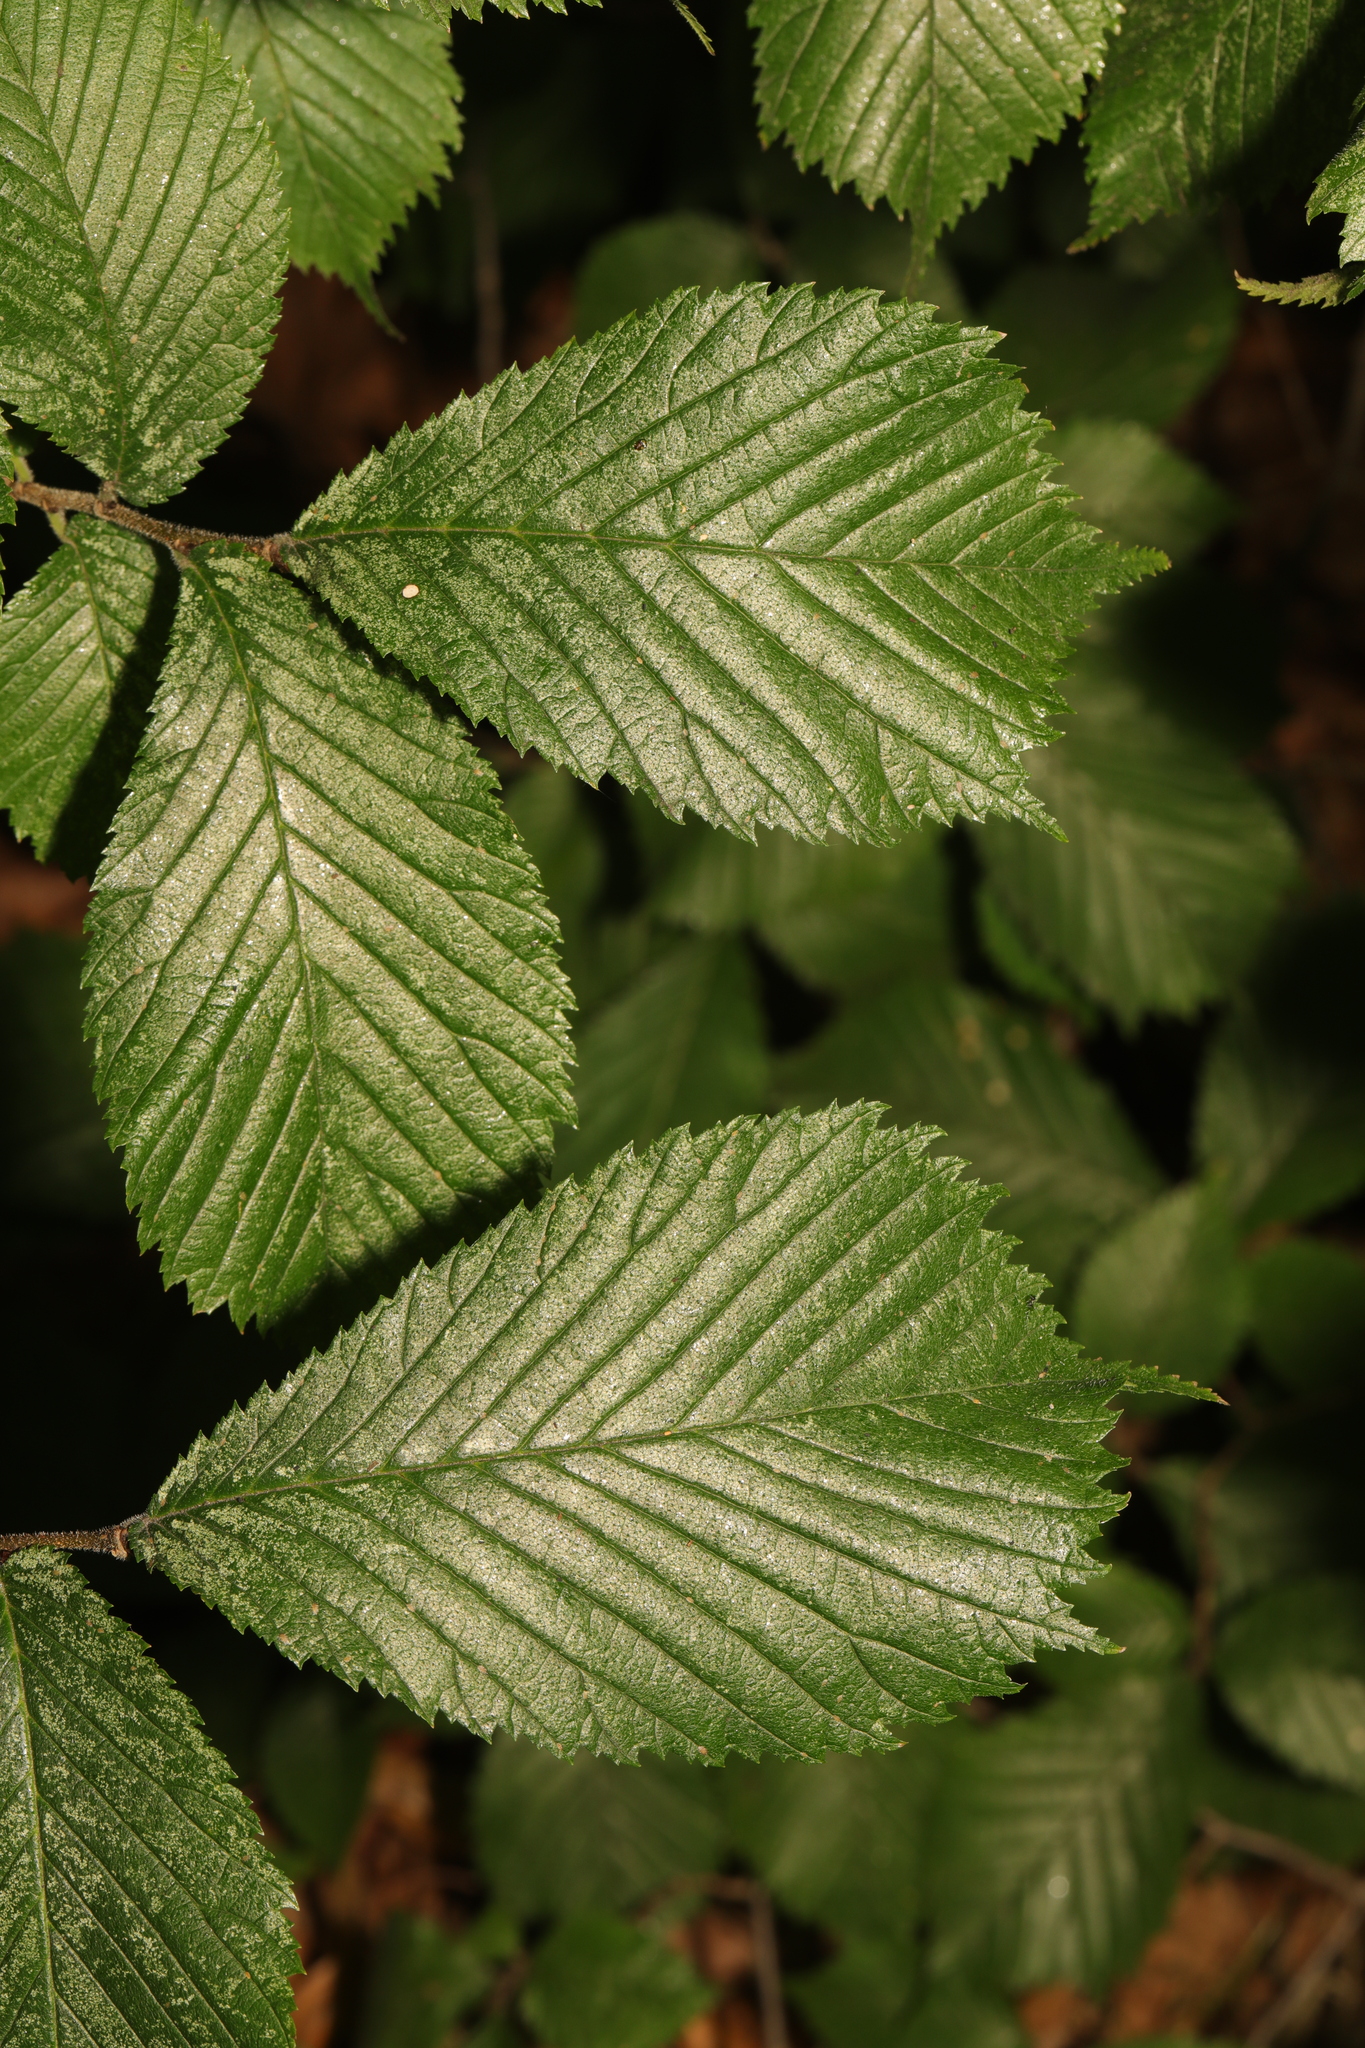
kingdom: Plantae
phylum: Tracheophyta
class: Magnoliopsida
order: Rosales
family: Ulmaceae
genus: Ulmus
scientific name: Ulmus glabra
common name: Wych elm
